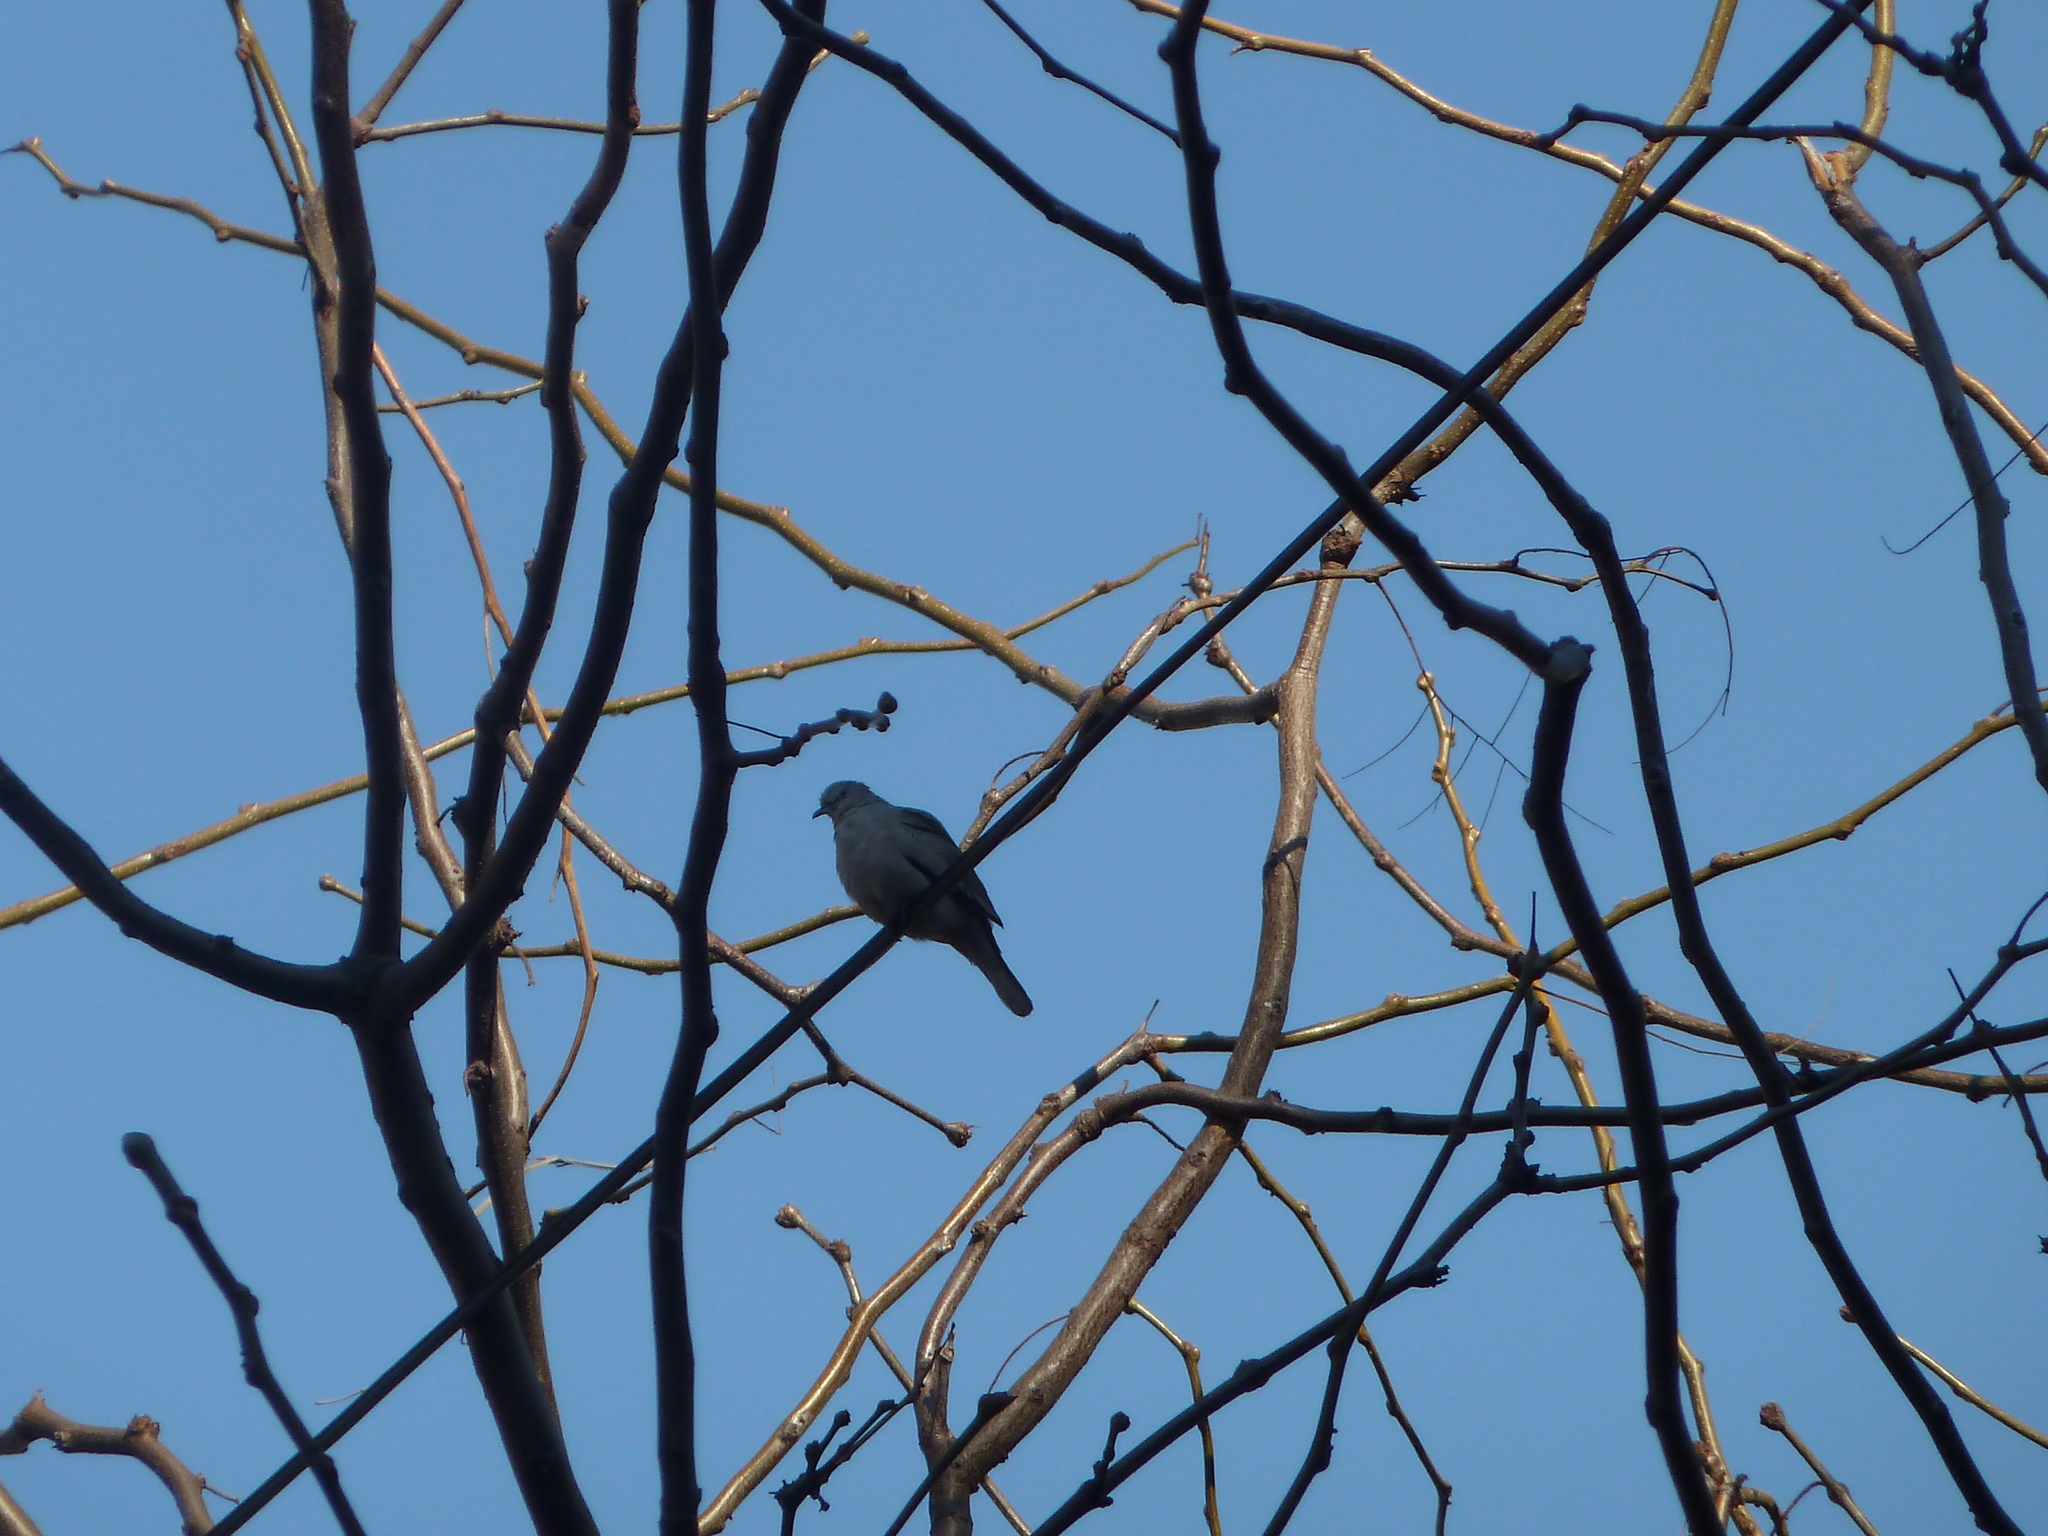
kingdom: Animalia
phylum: Chordata
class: Aves
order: Columbiformes
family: Columbidae
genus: Columbina
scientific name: Columbina picui
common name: Picui ground dove
